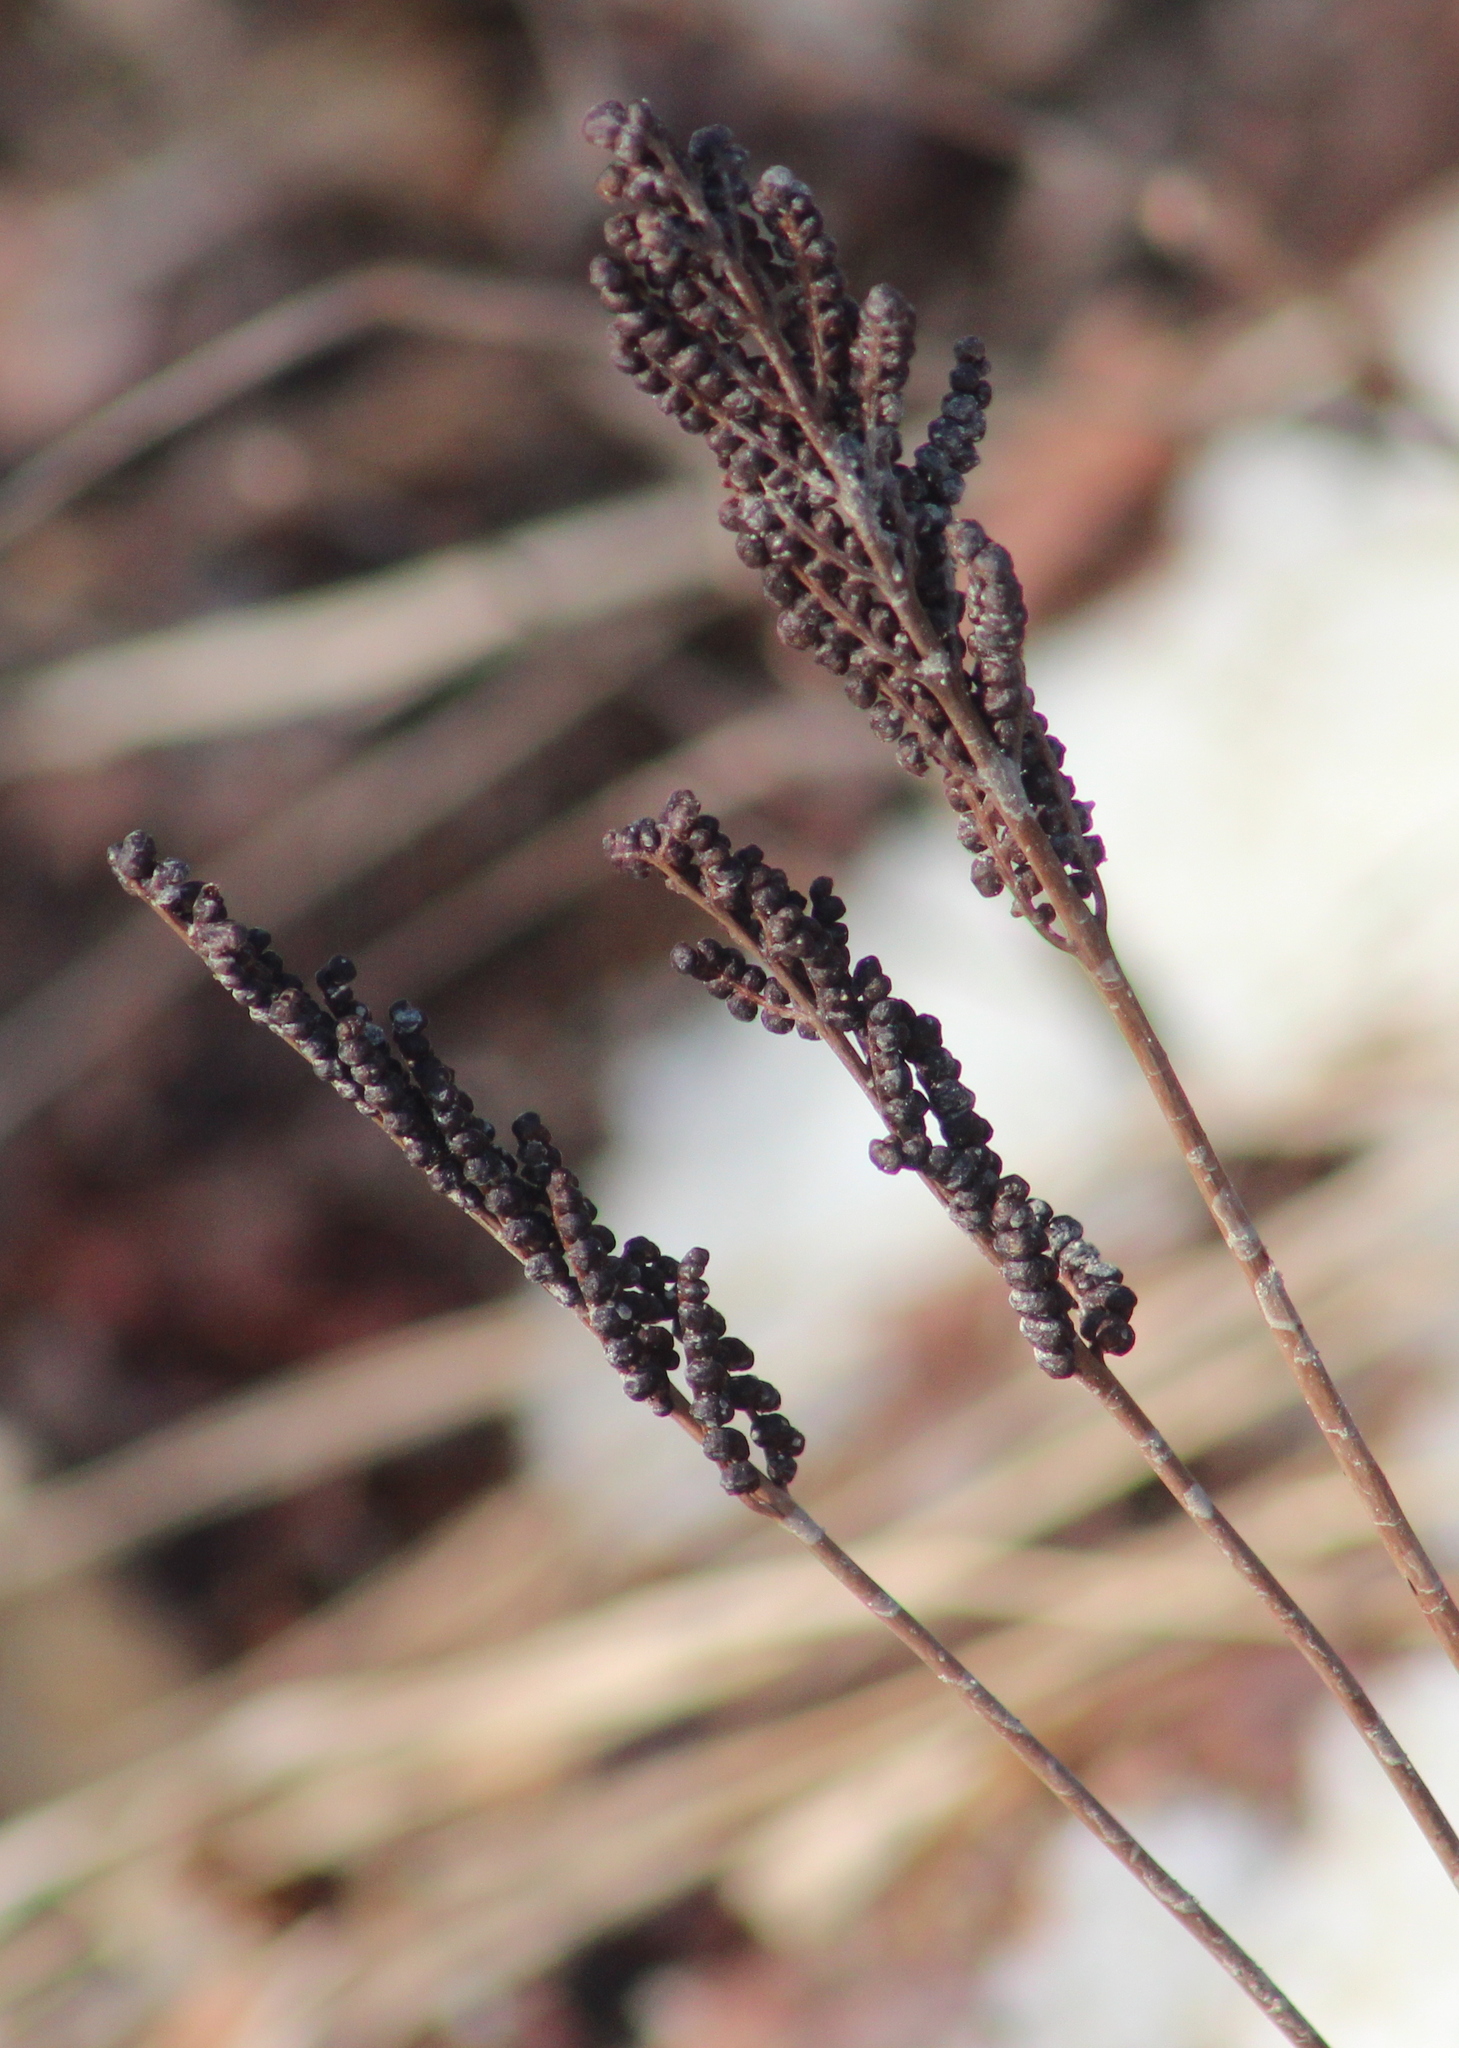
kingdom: Plantae
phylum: Tracheophyta
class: Polypodiopsida
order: Polypodiales
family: Onocleaceae
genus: Onoclea
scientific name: Onoclea sensibilis
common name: Sensitive fern
